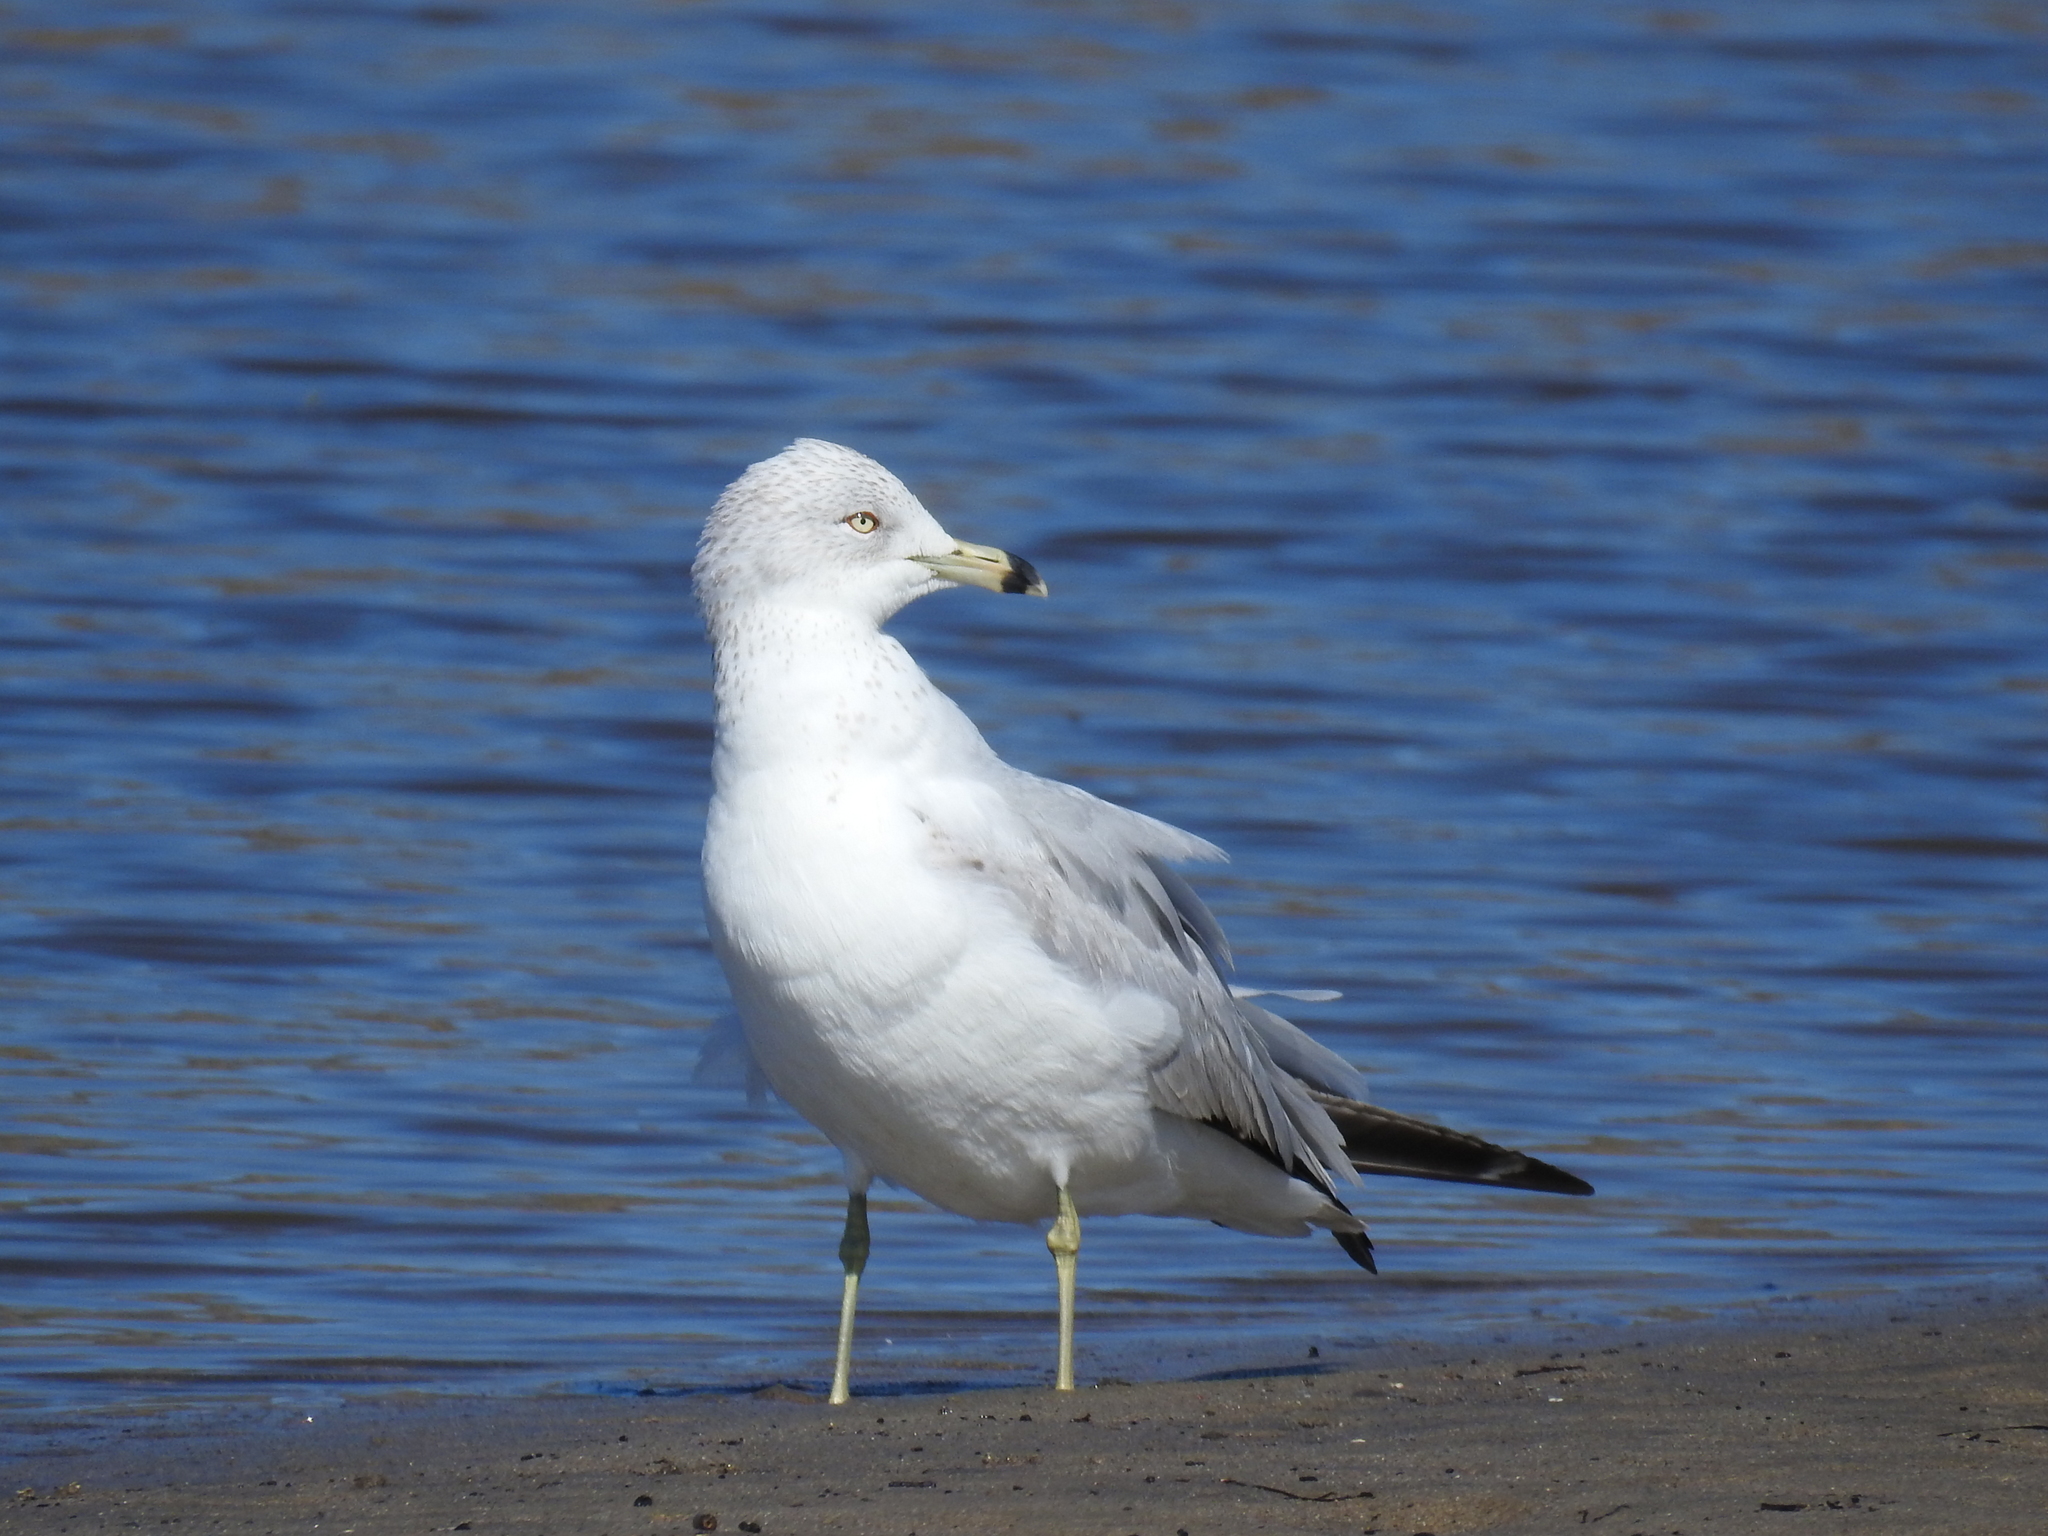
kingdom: Animalia
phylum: Chordata
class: Aves
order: Charadriiformes
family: Laridae
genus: Larus
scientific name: Larus delawarensis
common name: Ring-billed gull
